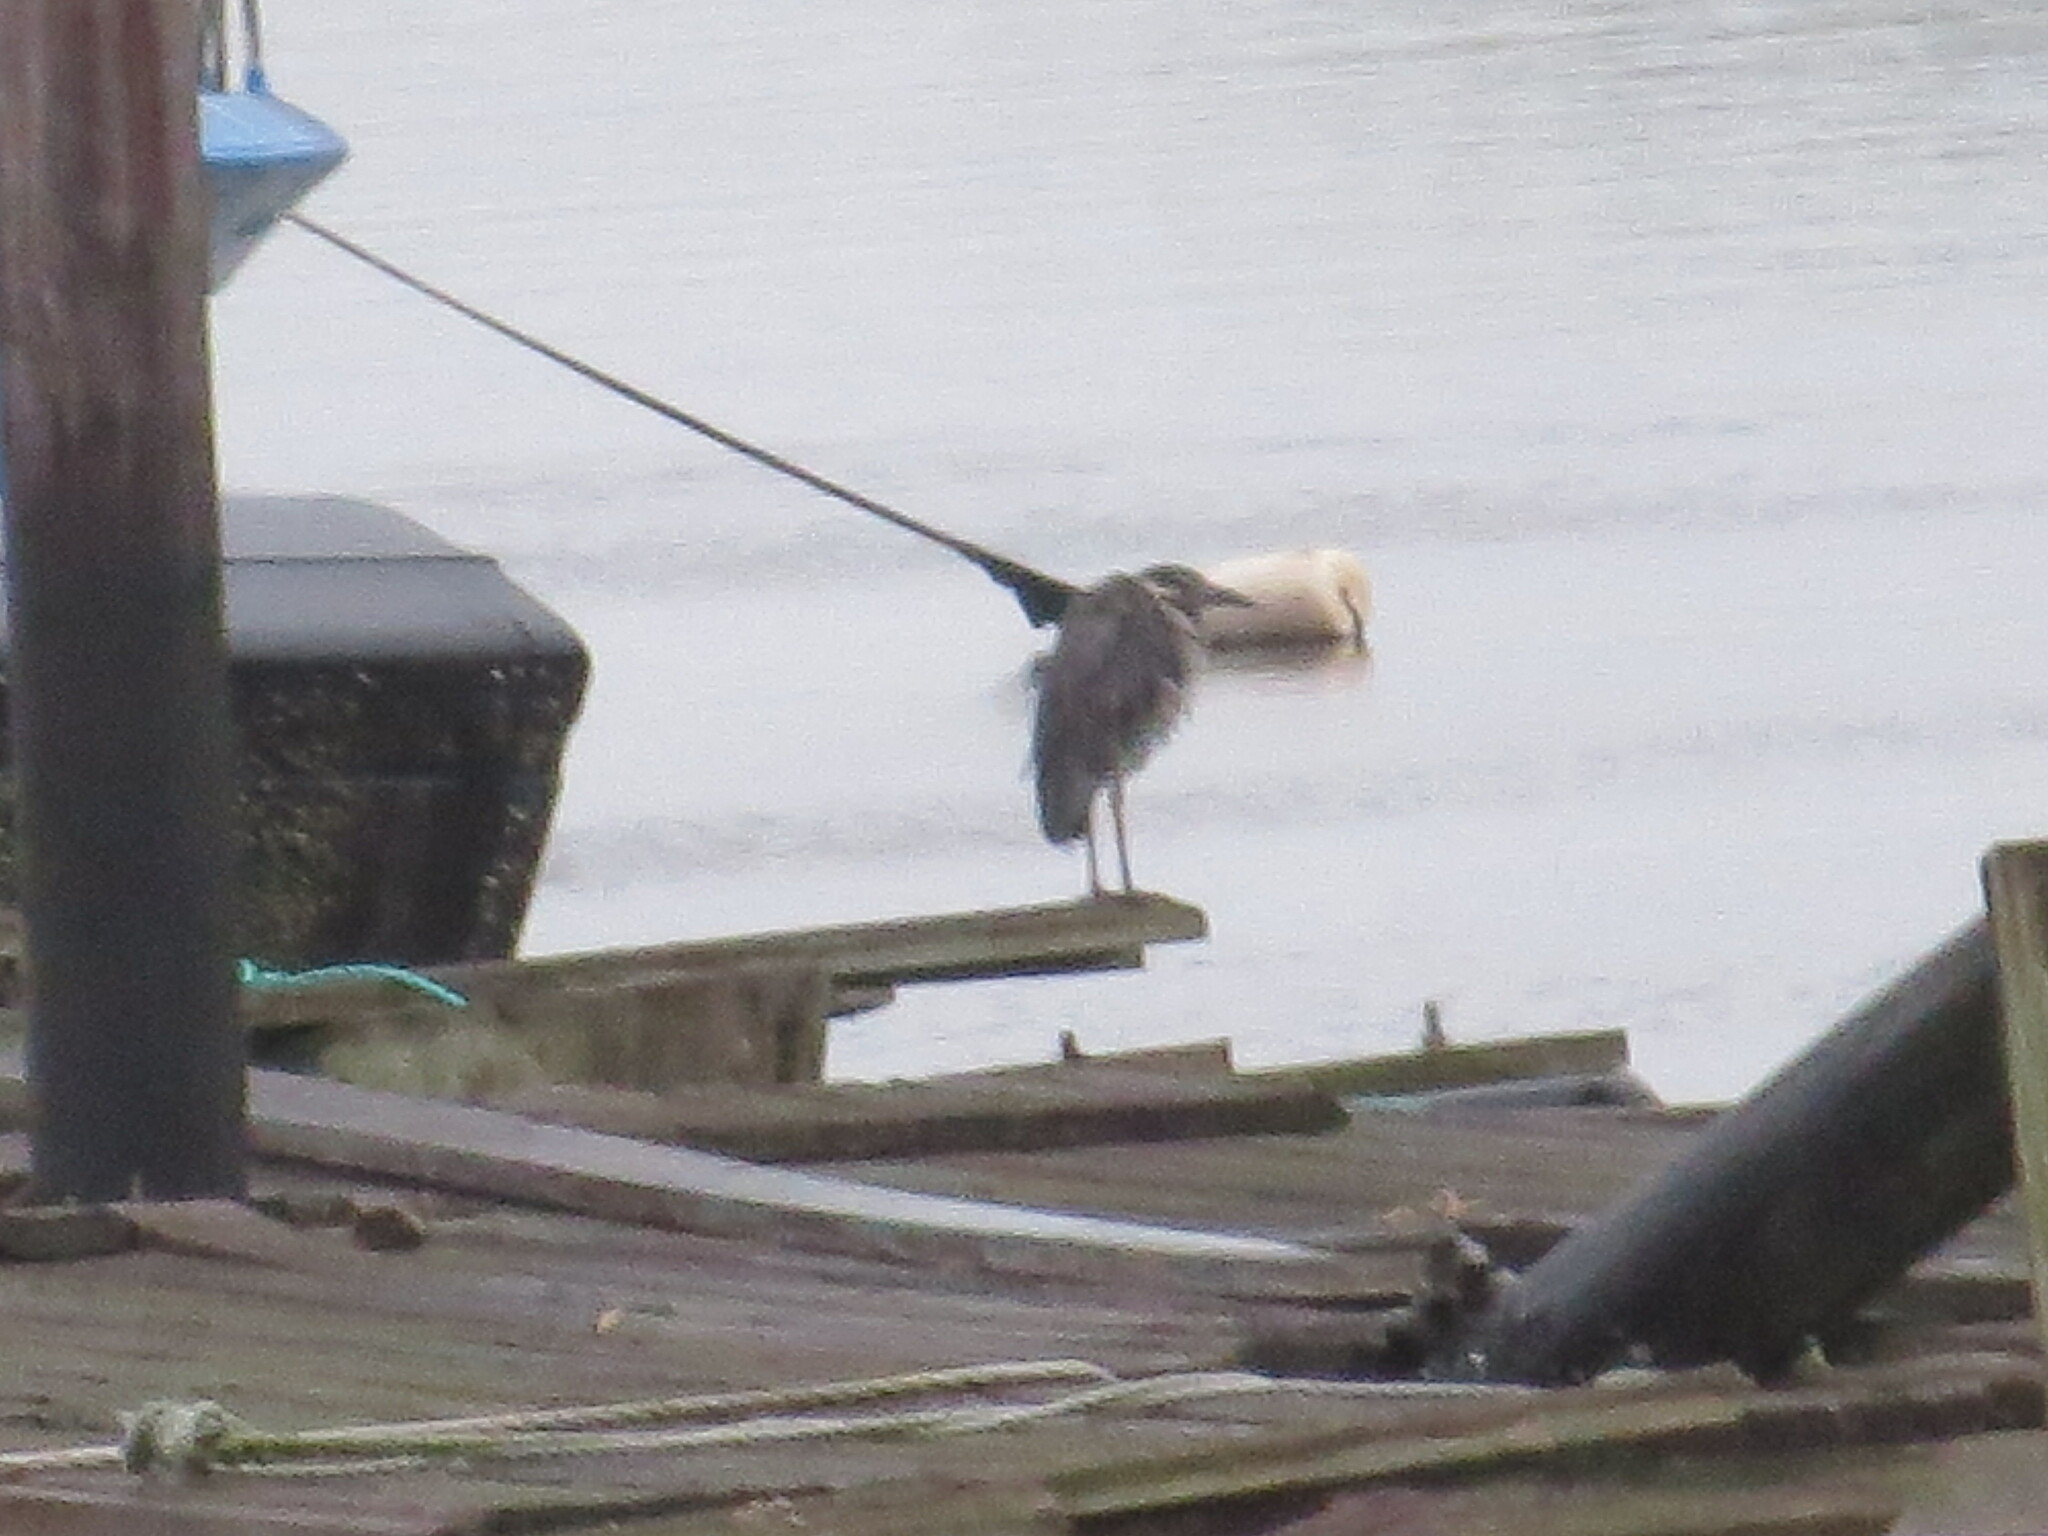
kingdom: Animalia
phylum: Chordata
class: Aves
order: Pelecaniformes
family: Ardeidae
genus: Nyctanassa
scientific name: Nyctanassa violacea
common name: Yellow-crowned night heron
